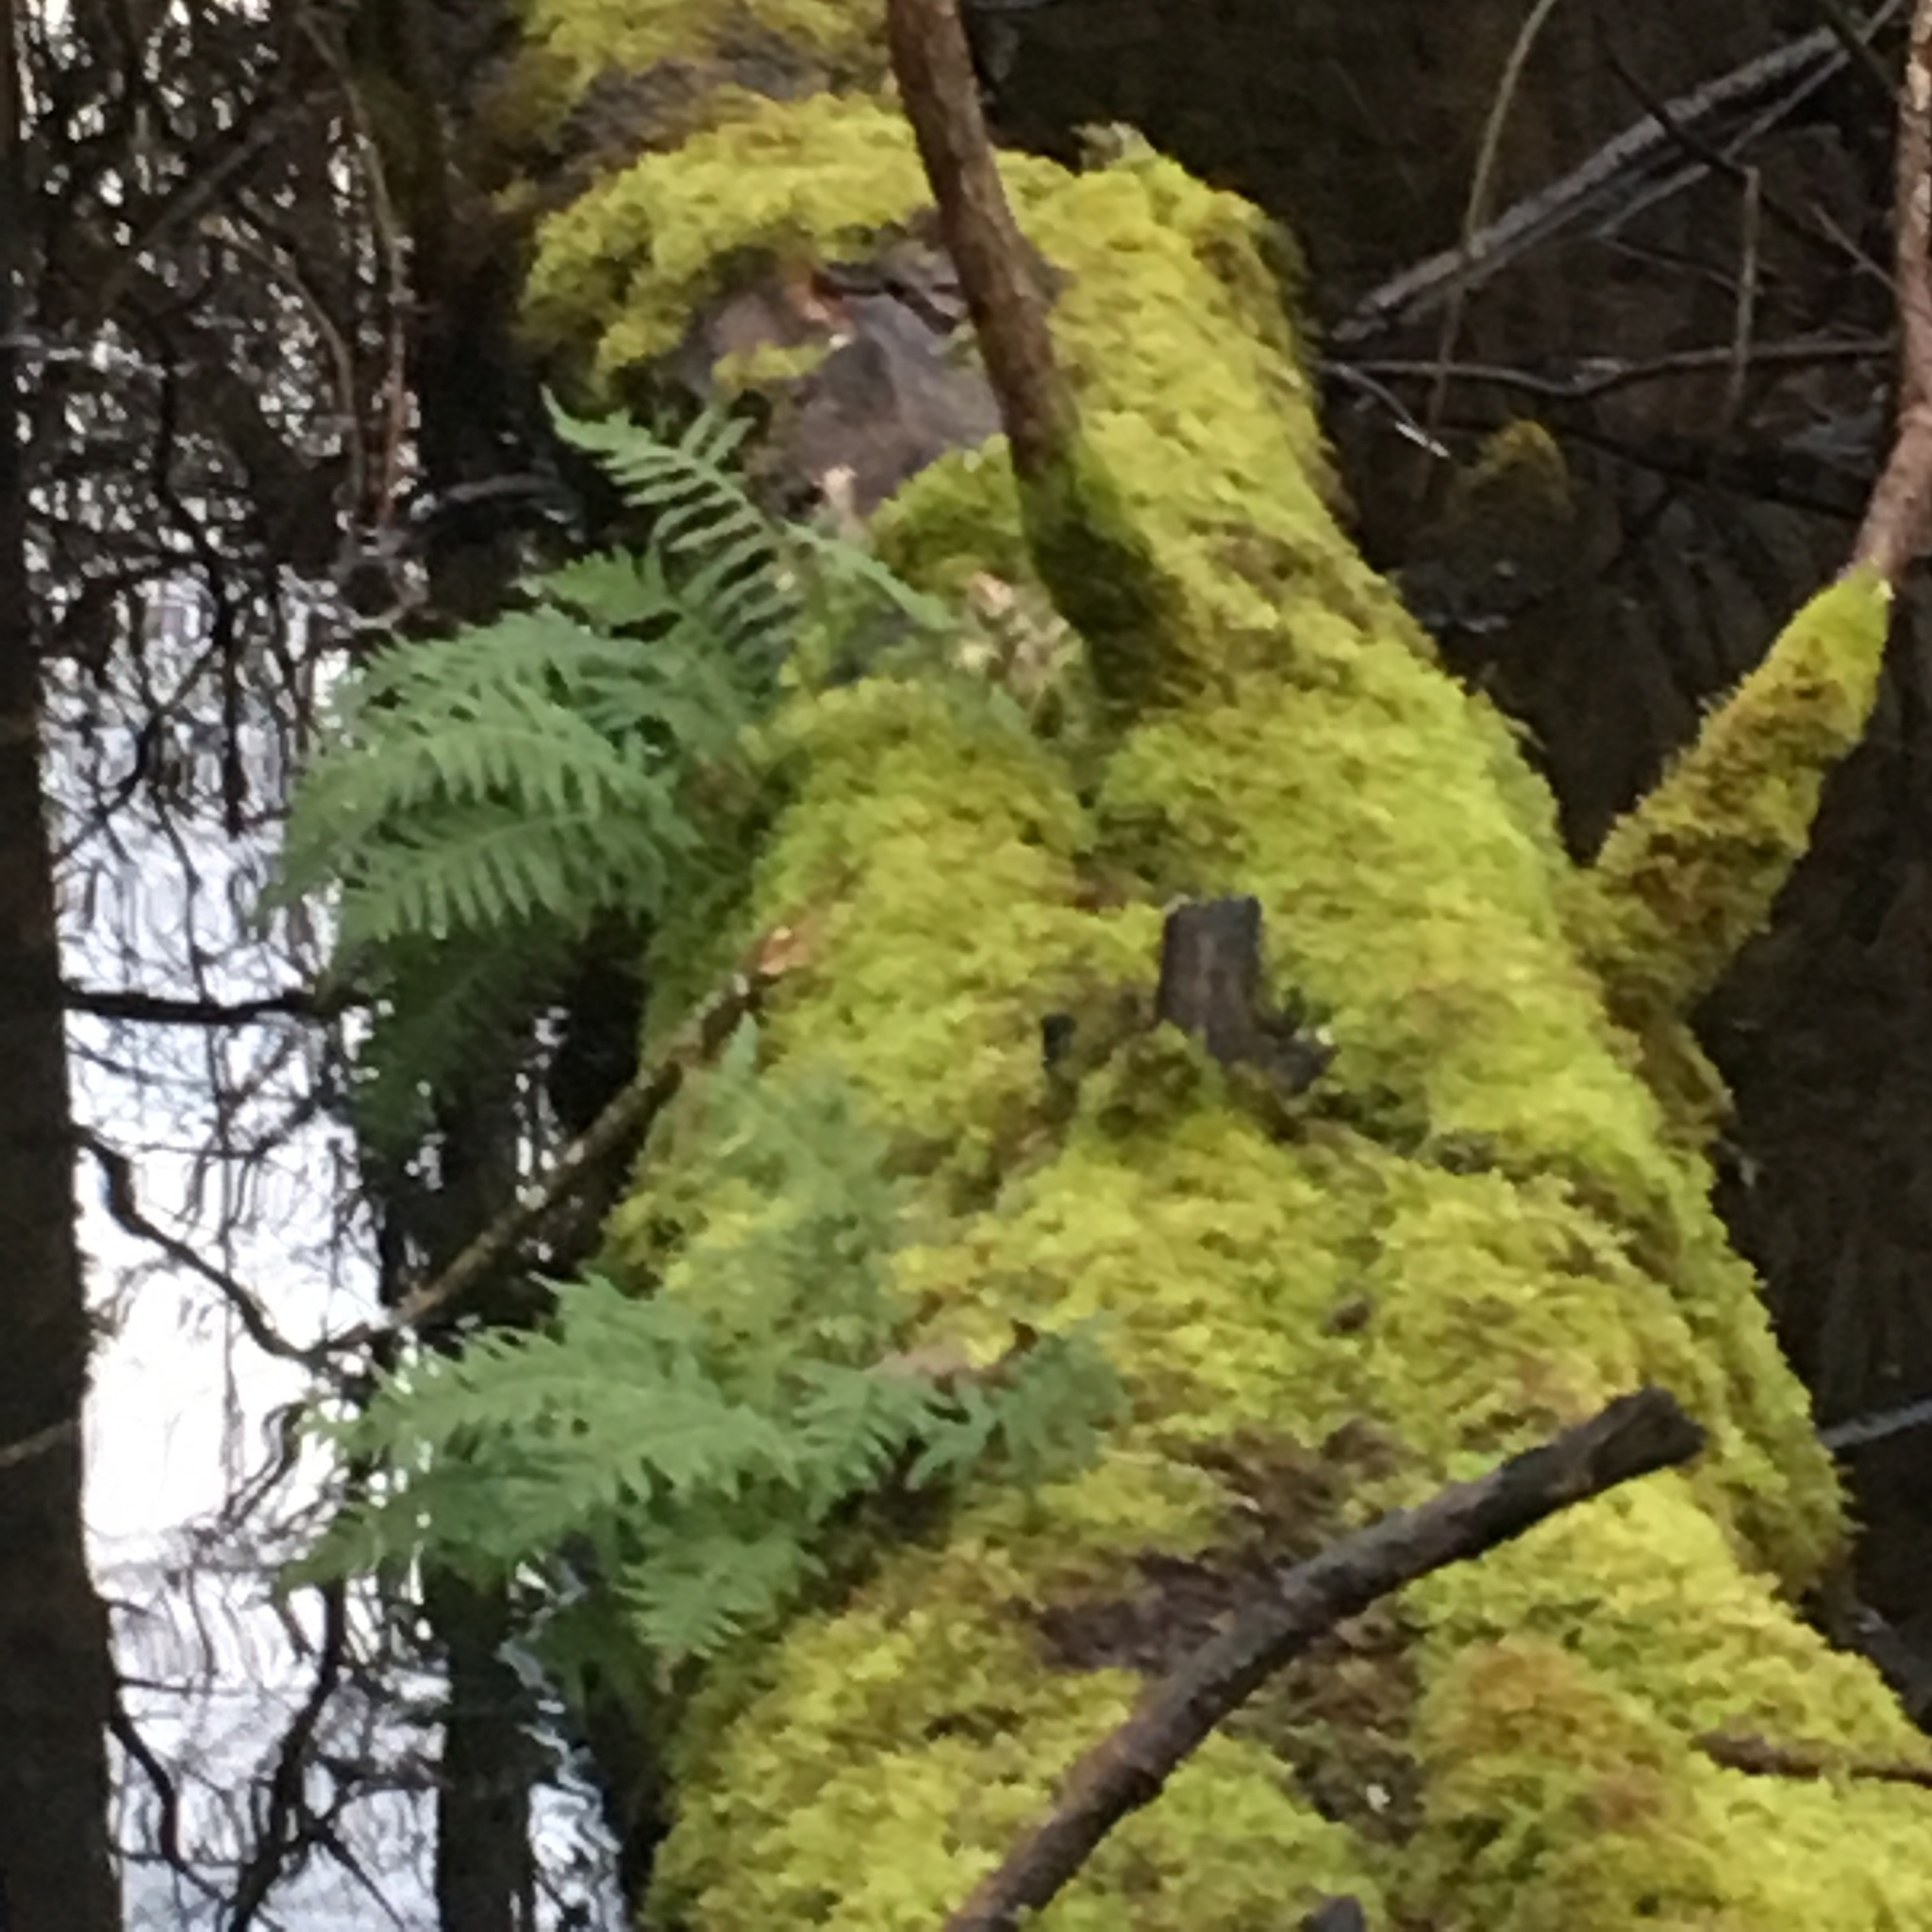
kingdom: Plantae
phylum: Tracheophyta
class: Polypodiopsida
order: Polypodiales
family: Polypodiaceae
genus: Polypodium
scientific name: Polypodium glycyrrhiza
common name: Licorice fern
